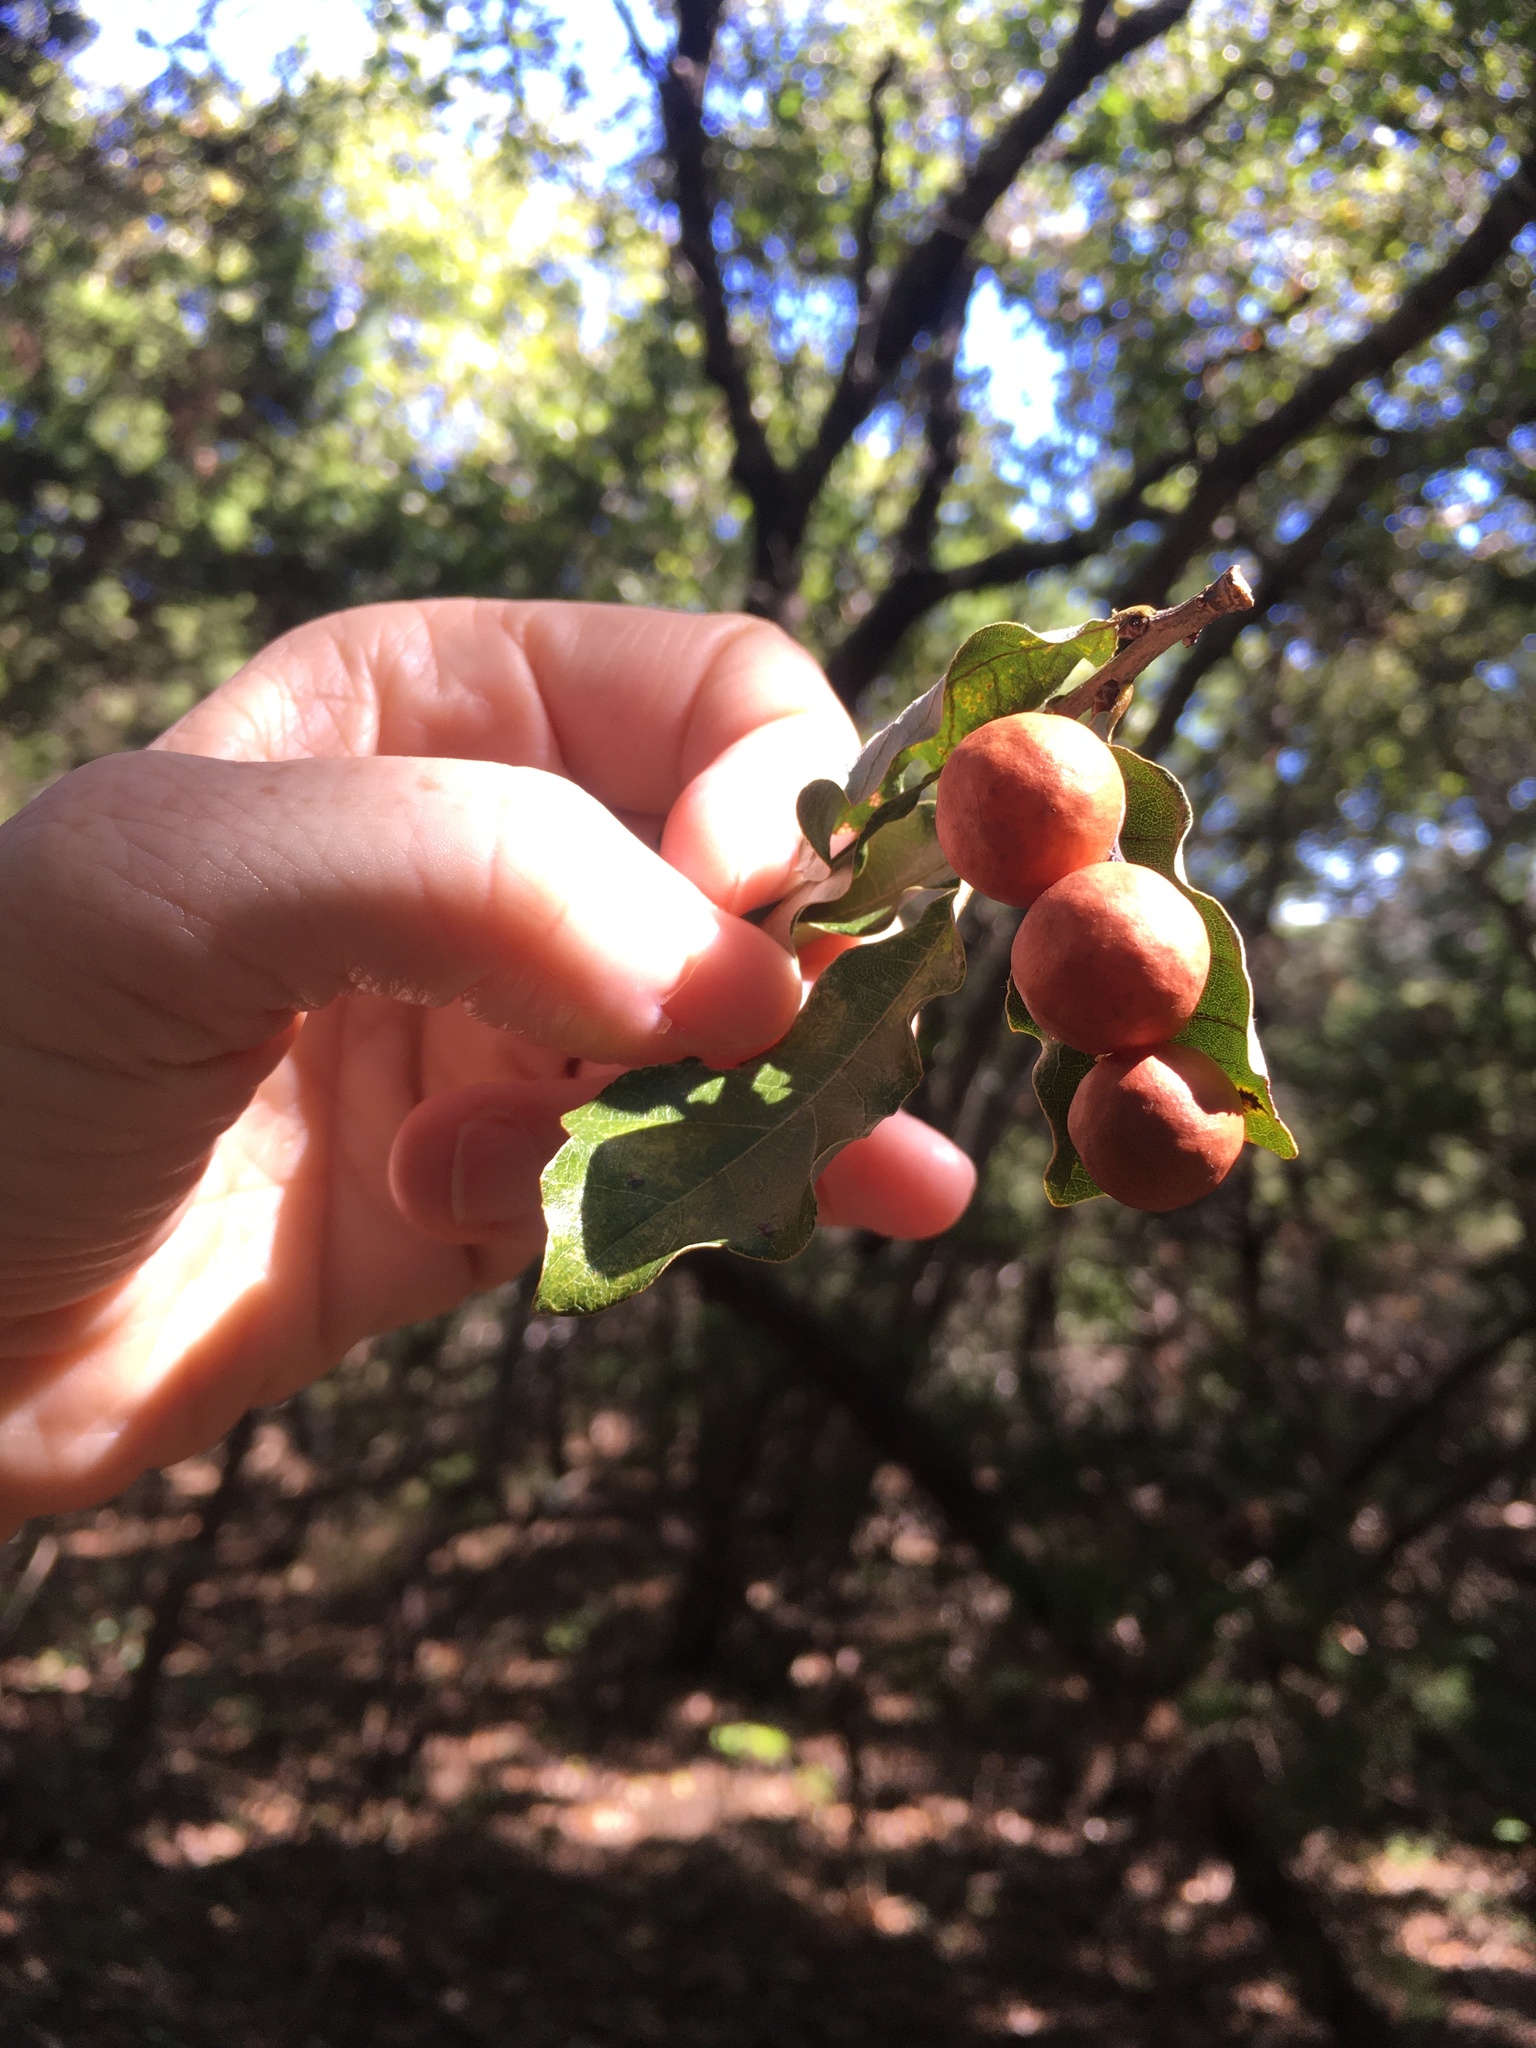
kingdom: Animalia
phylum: Arthropoda
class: Insecta
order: Hymenoptera
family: Cynipidae
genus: Trigonaspis
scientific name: Trigonaspis
